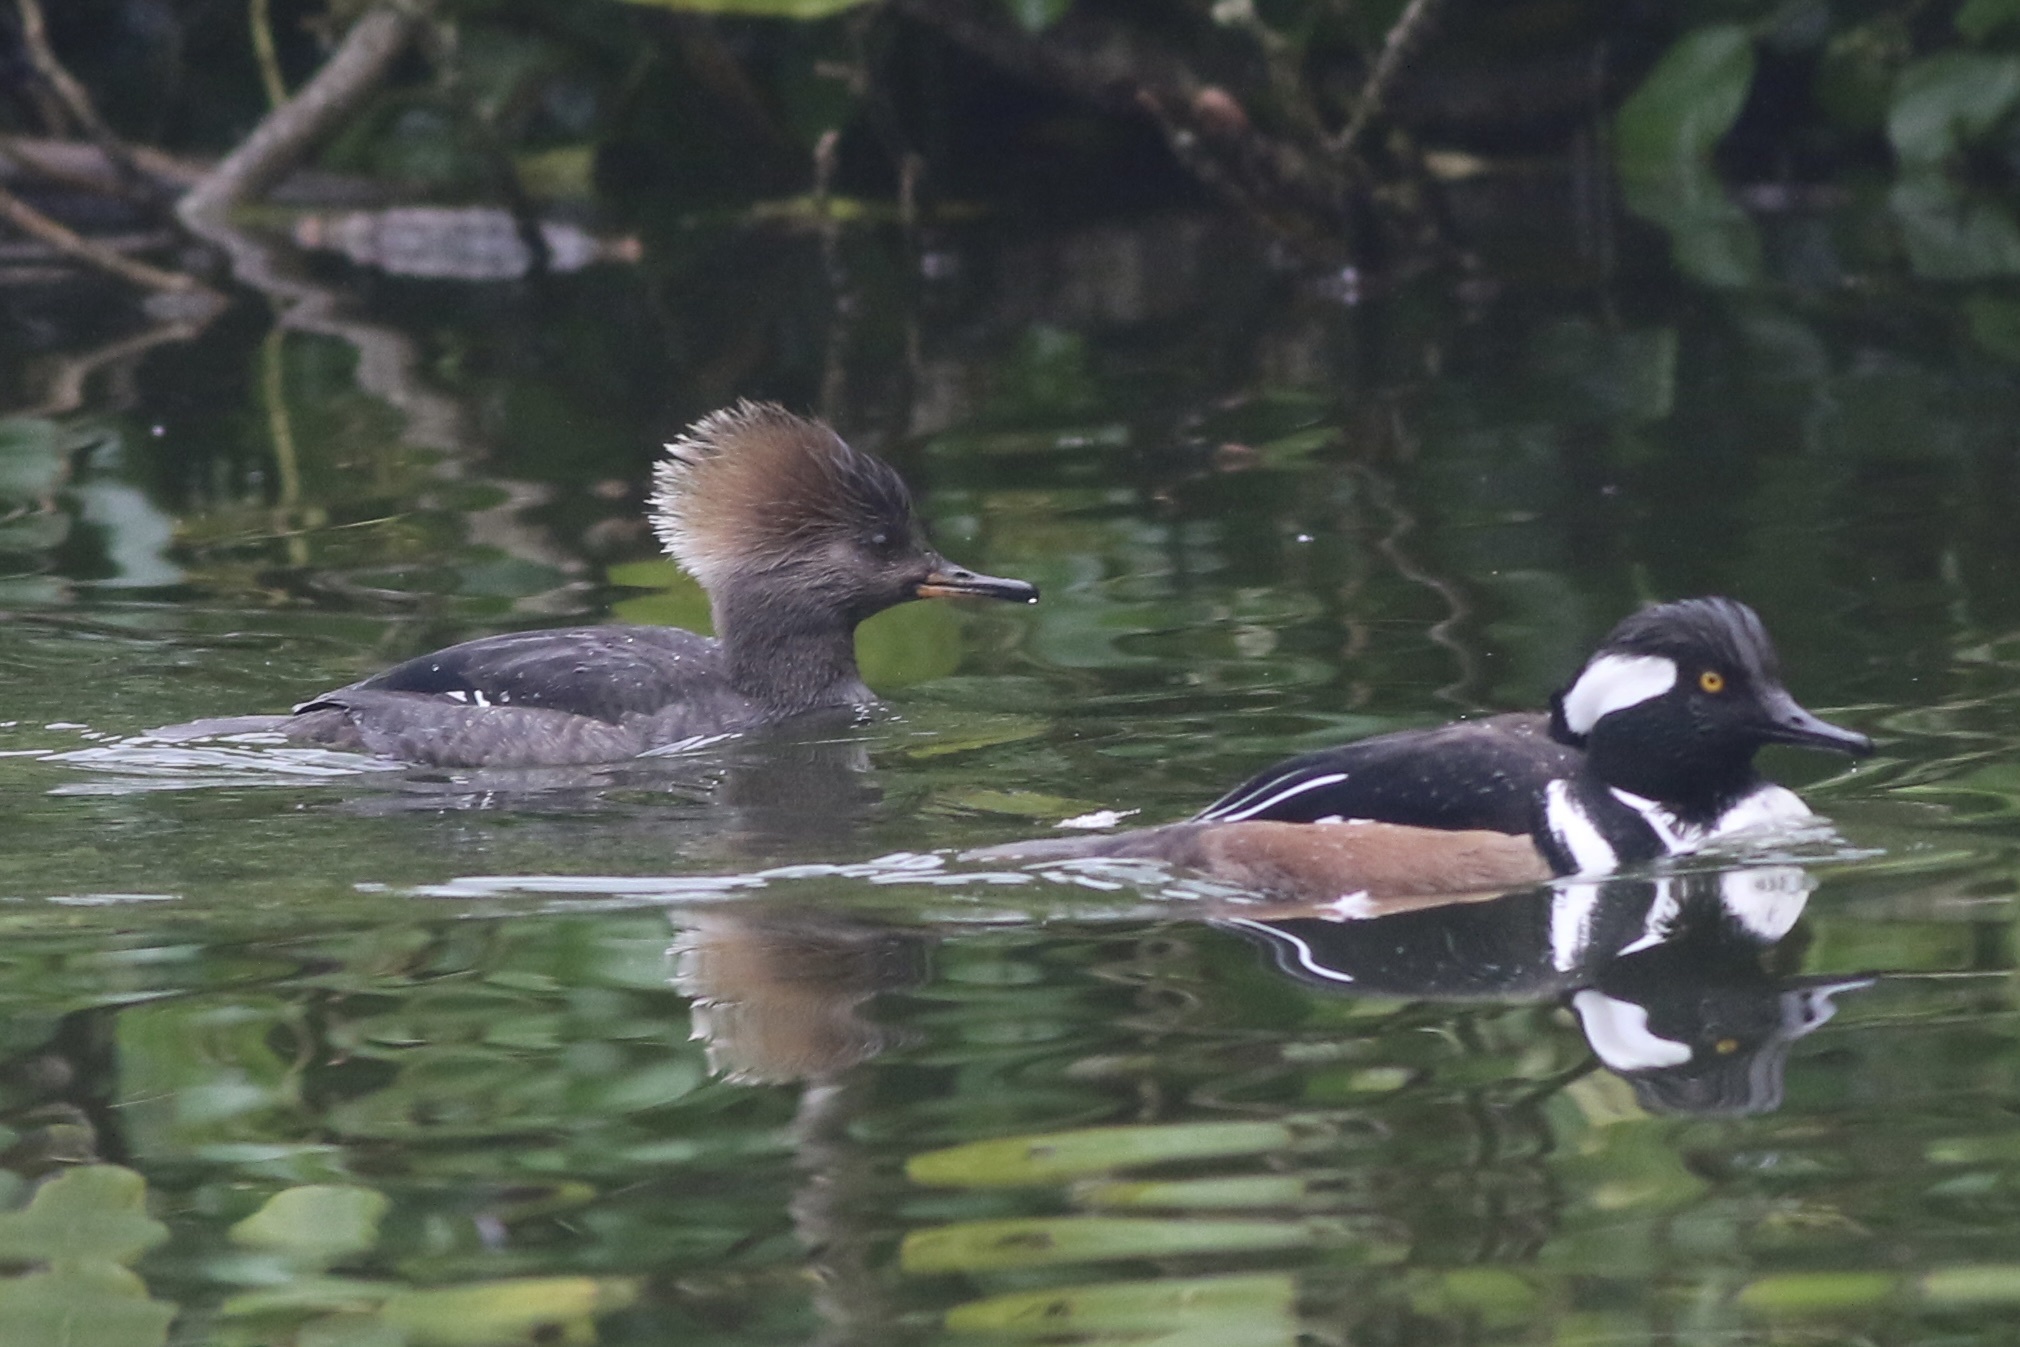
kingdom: Animalia
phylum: Chordata
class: Aves
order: Anseriformes
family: Anatidae
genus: Lophodytes
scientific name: Lophodytes cucullatus
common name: Hooded merganser
